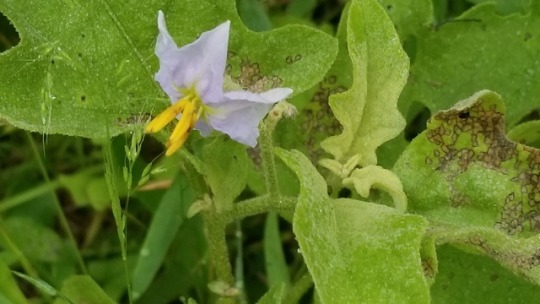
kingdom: Plantae
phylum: Tracheophyta
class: Magnoliopsida
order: Solanales
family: Solanaceae
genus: Solanum
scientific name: Solanum dimidiatum
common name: Carolina horse-nettle
